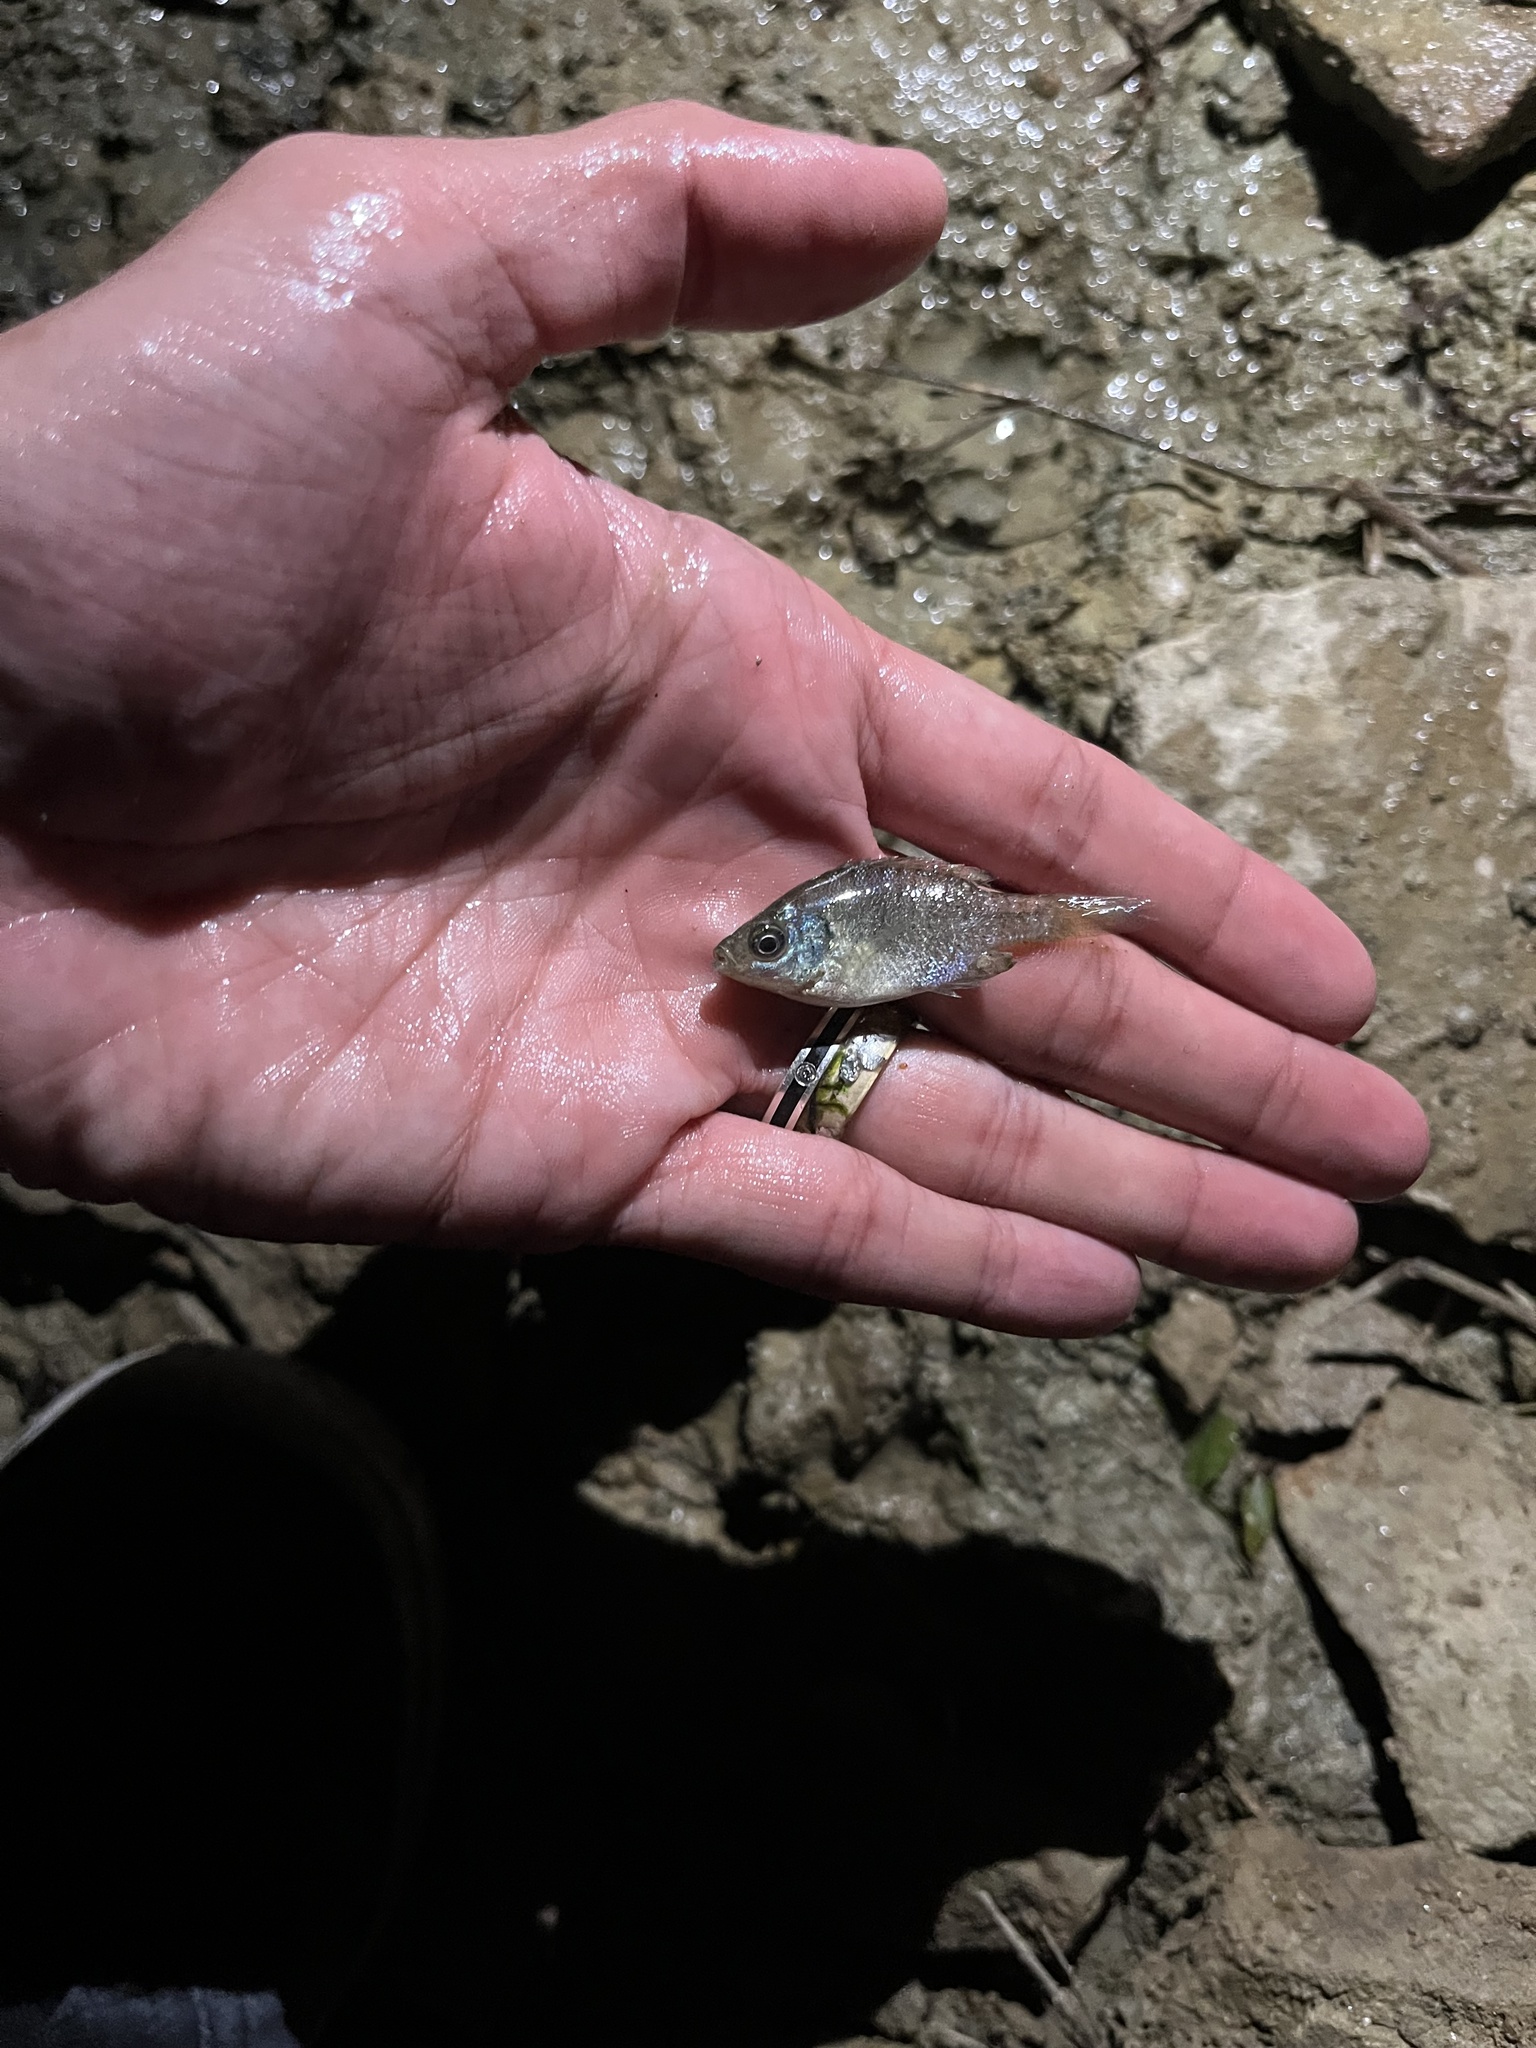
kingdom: Animalia
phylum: Chordata
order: Perciformes
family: Centrarchidae
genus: Lepomis
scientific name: Lepomis macrochirus
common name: Bluegill
